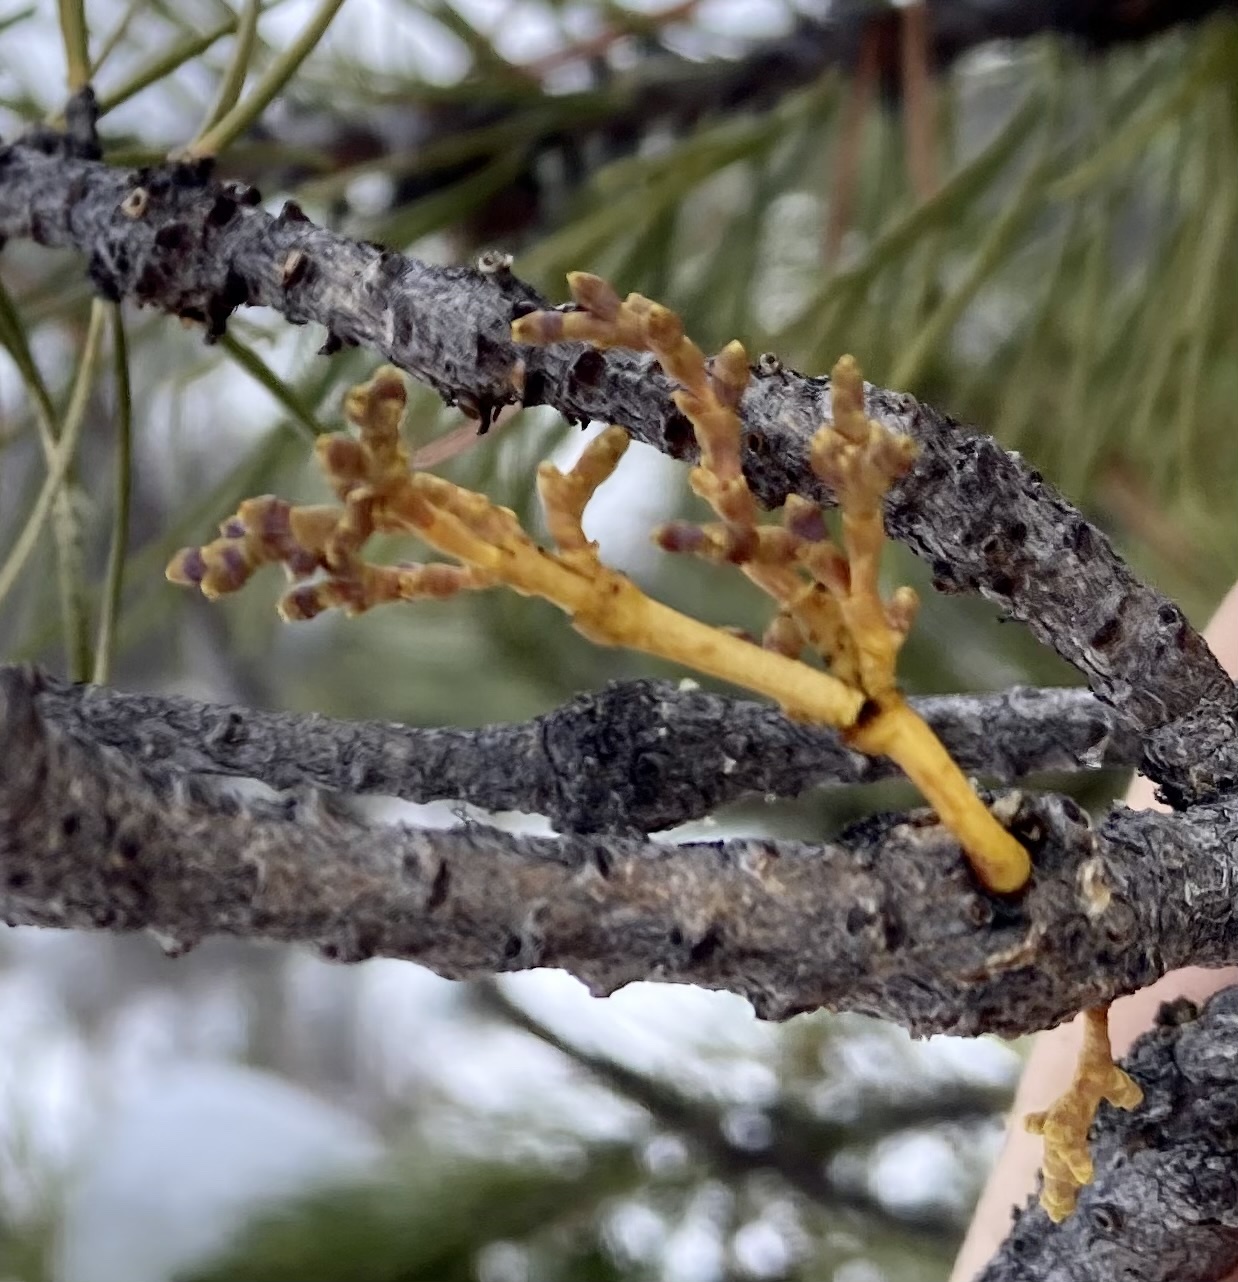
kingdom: Plantae
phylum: Tracheophyta
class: Magnoliopsida
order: Santalales
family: Viscaceae
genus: Arceuthobium
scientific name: Arceuthobium americanum
